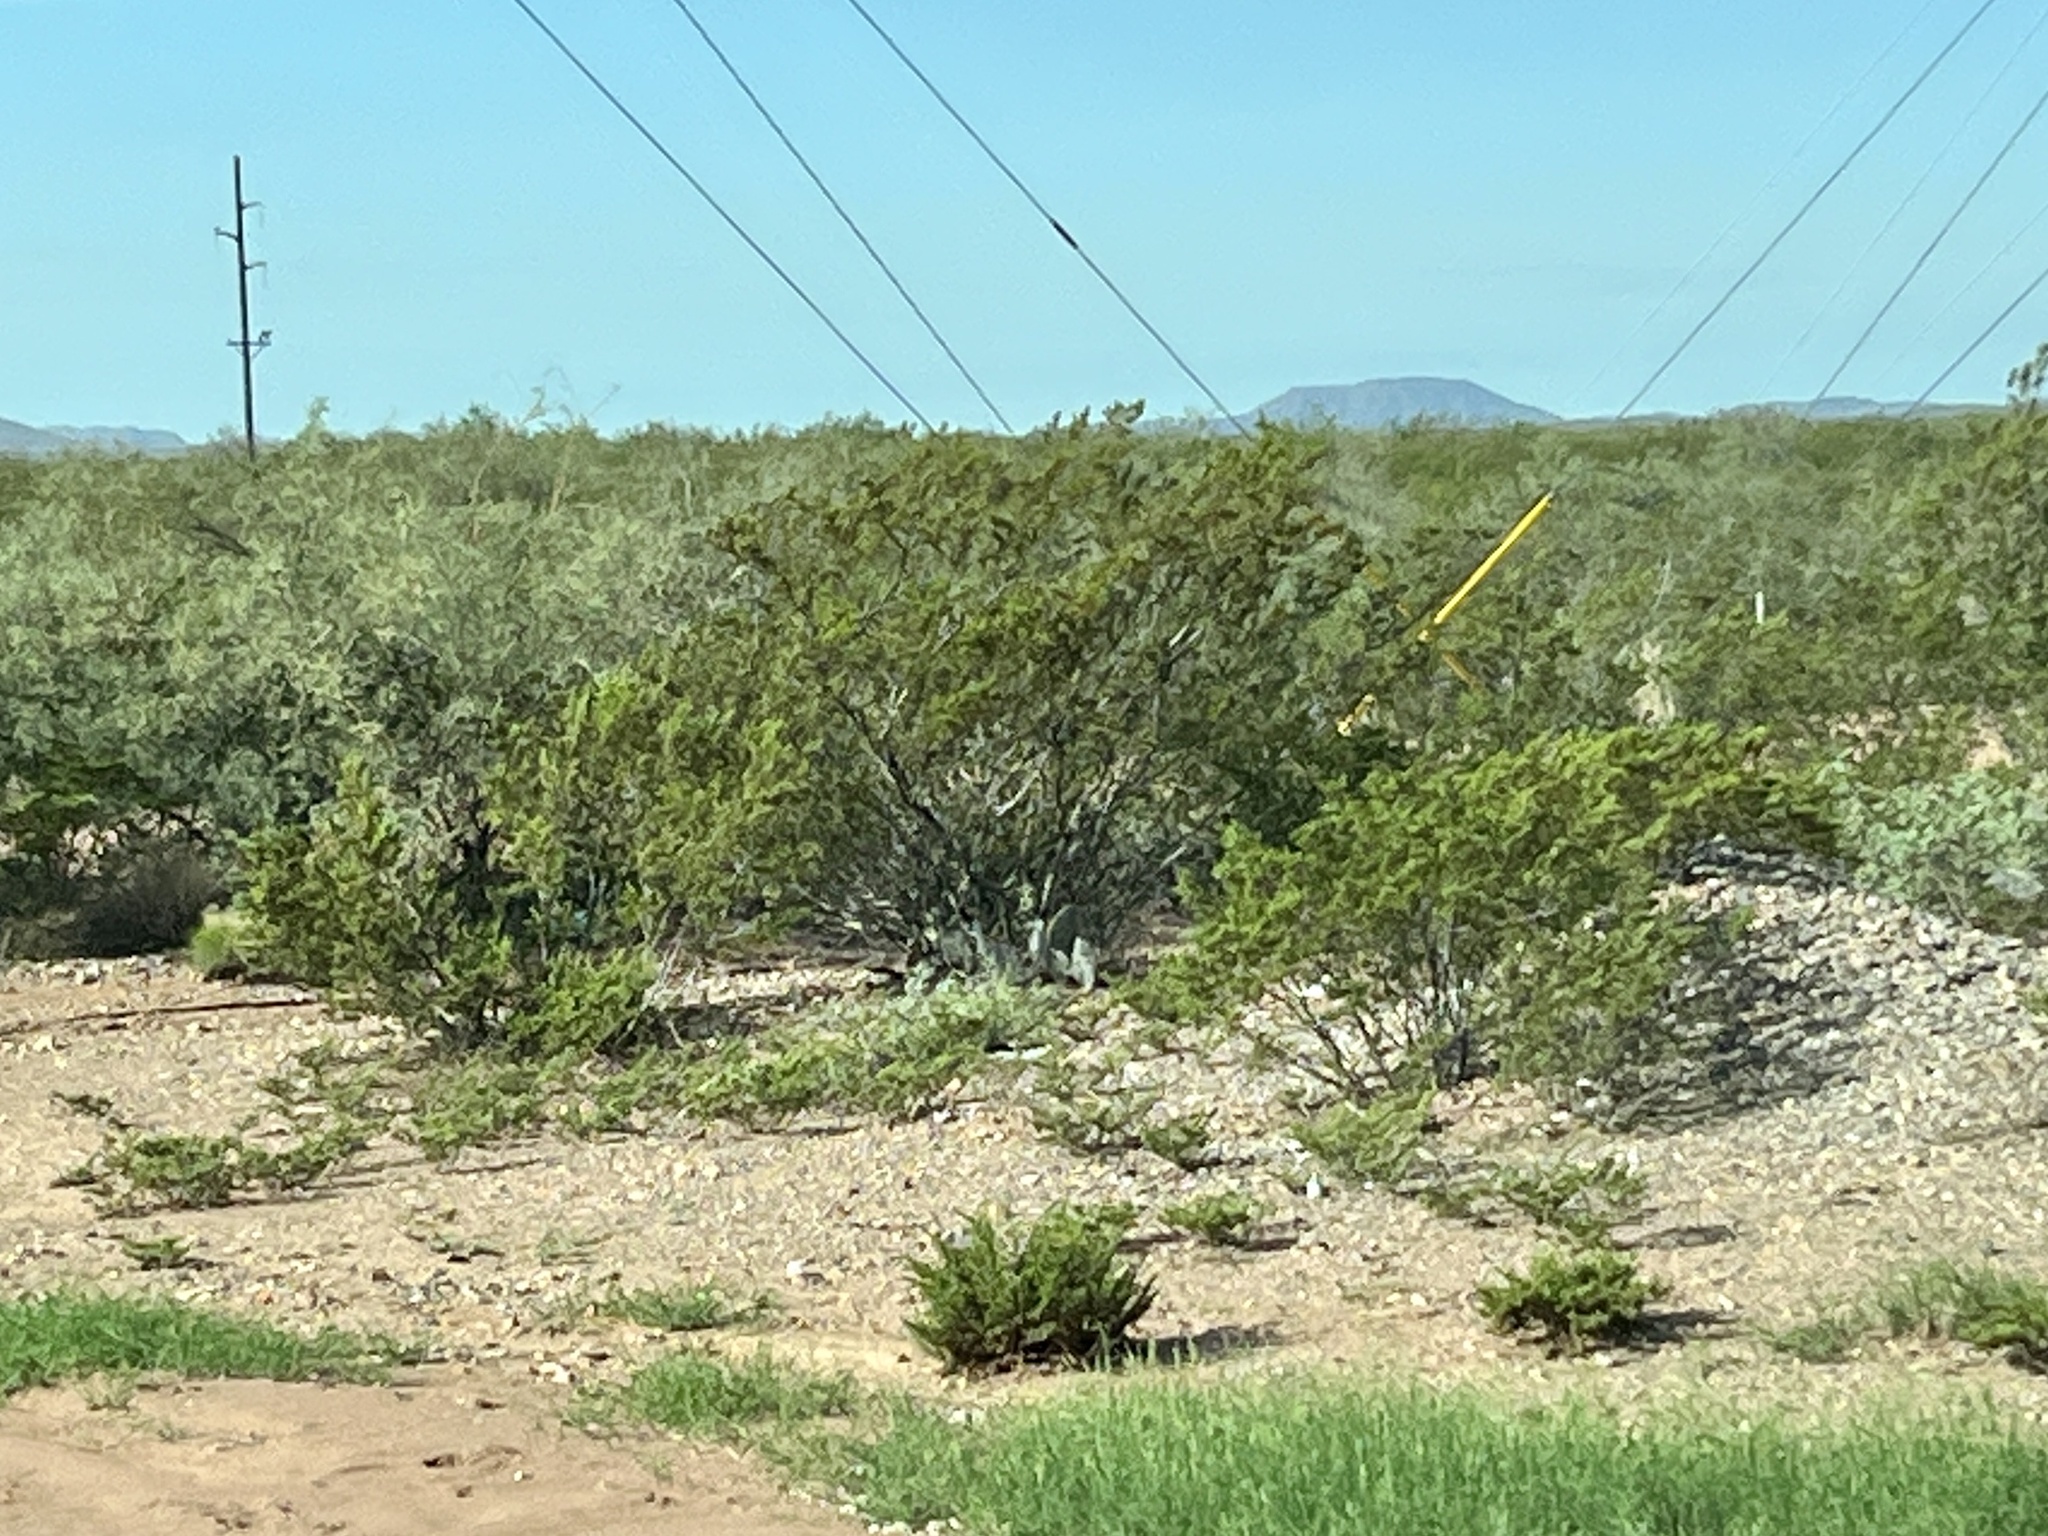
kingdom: Plantae
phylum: Tracheophyta
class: Magnoliopsida
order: Zygophyllales
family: Zygophyllaceae
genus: Larrea
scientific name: Larrea tridentata
